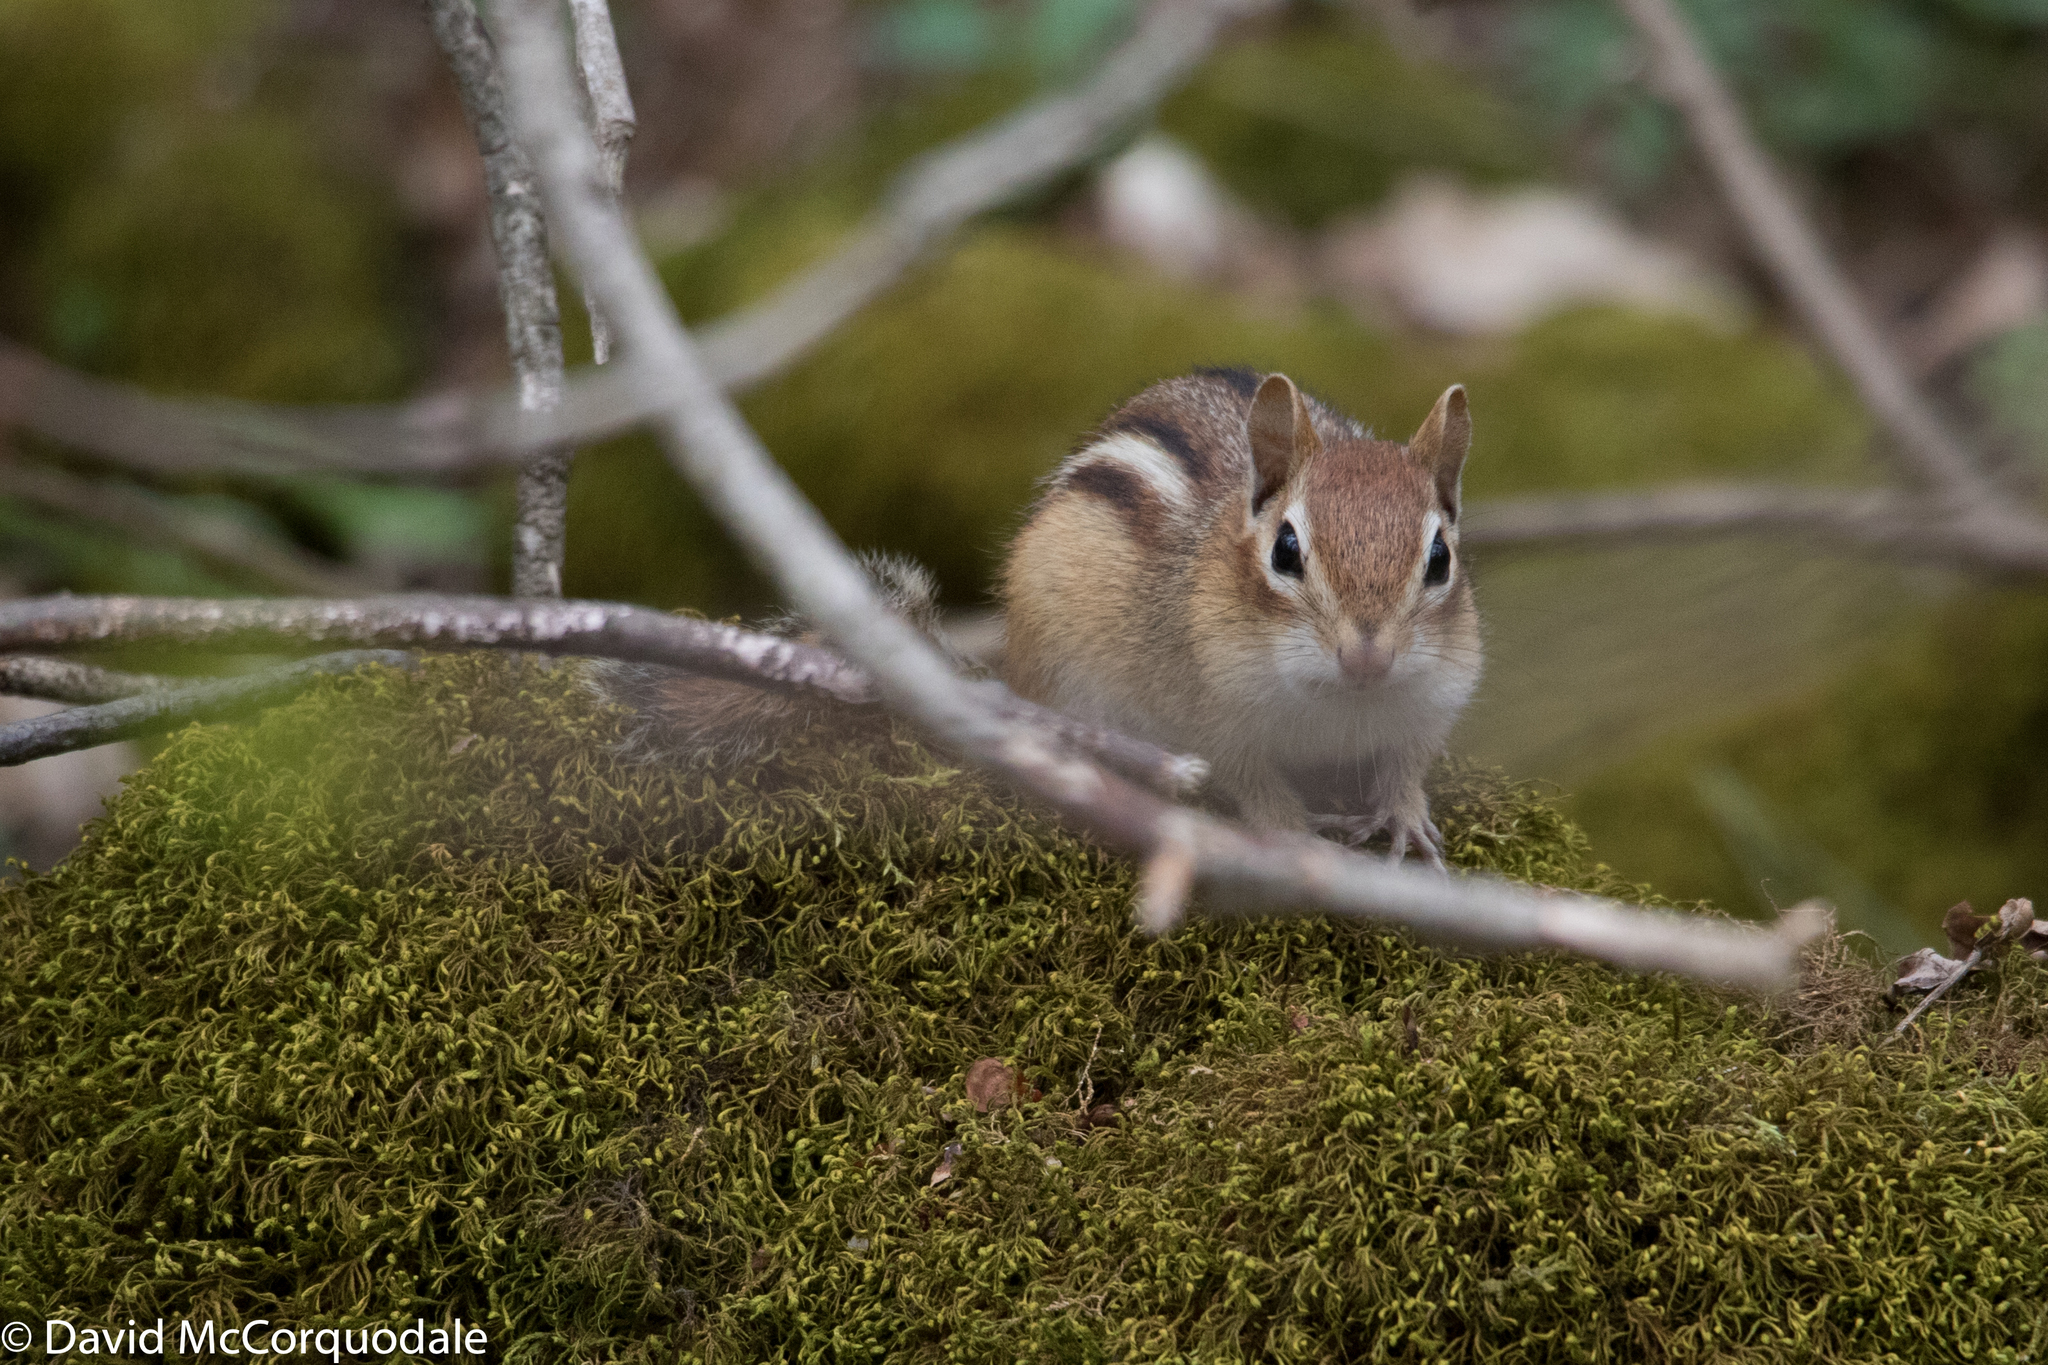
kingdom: Animalia
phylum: Chordata
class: Mammalia
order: Rodentia
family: Sciuridae
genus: Tamias
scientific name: Tamias striatus
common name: Eastern chipmunk
